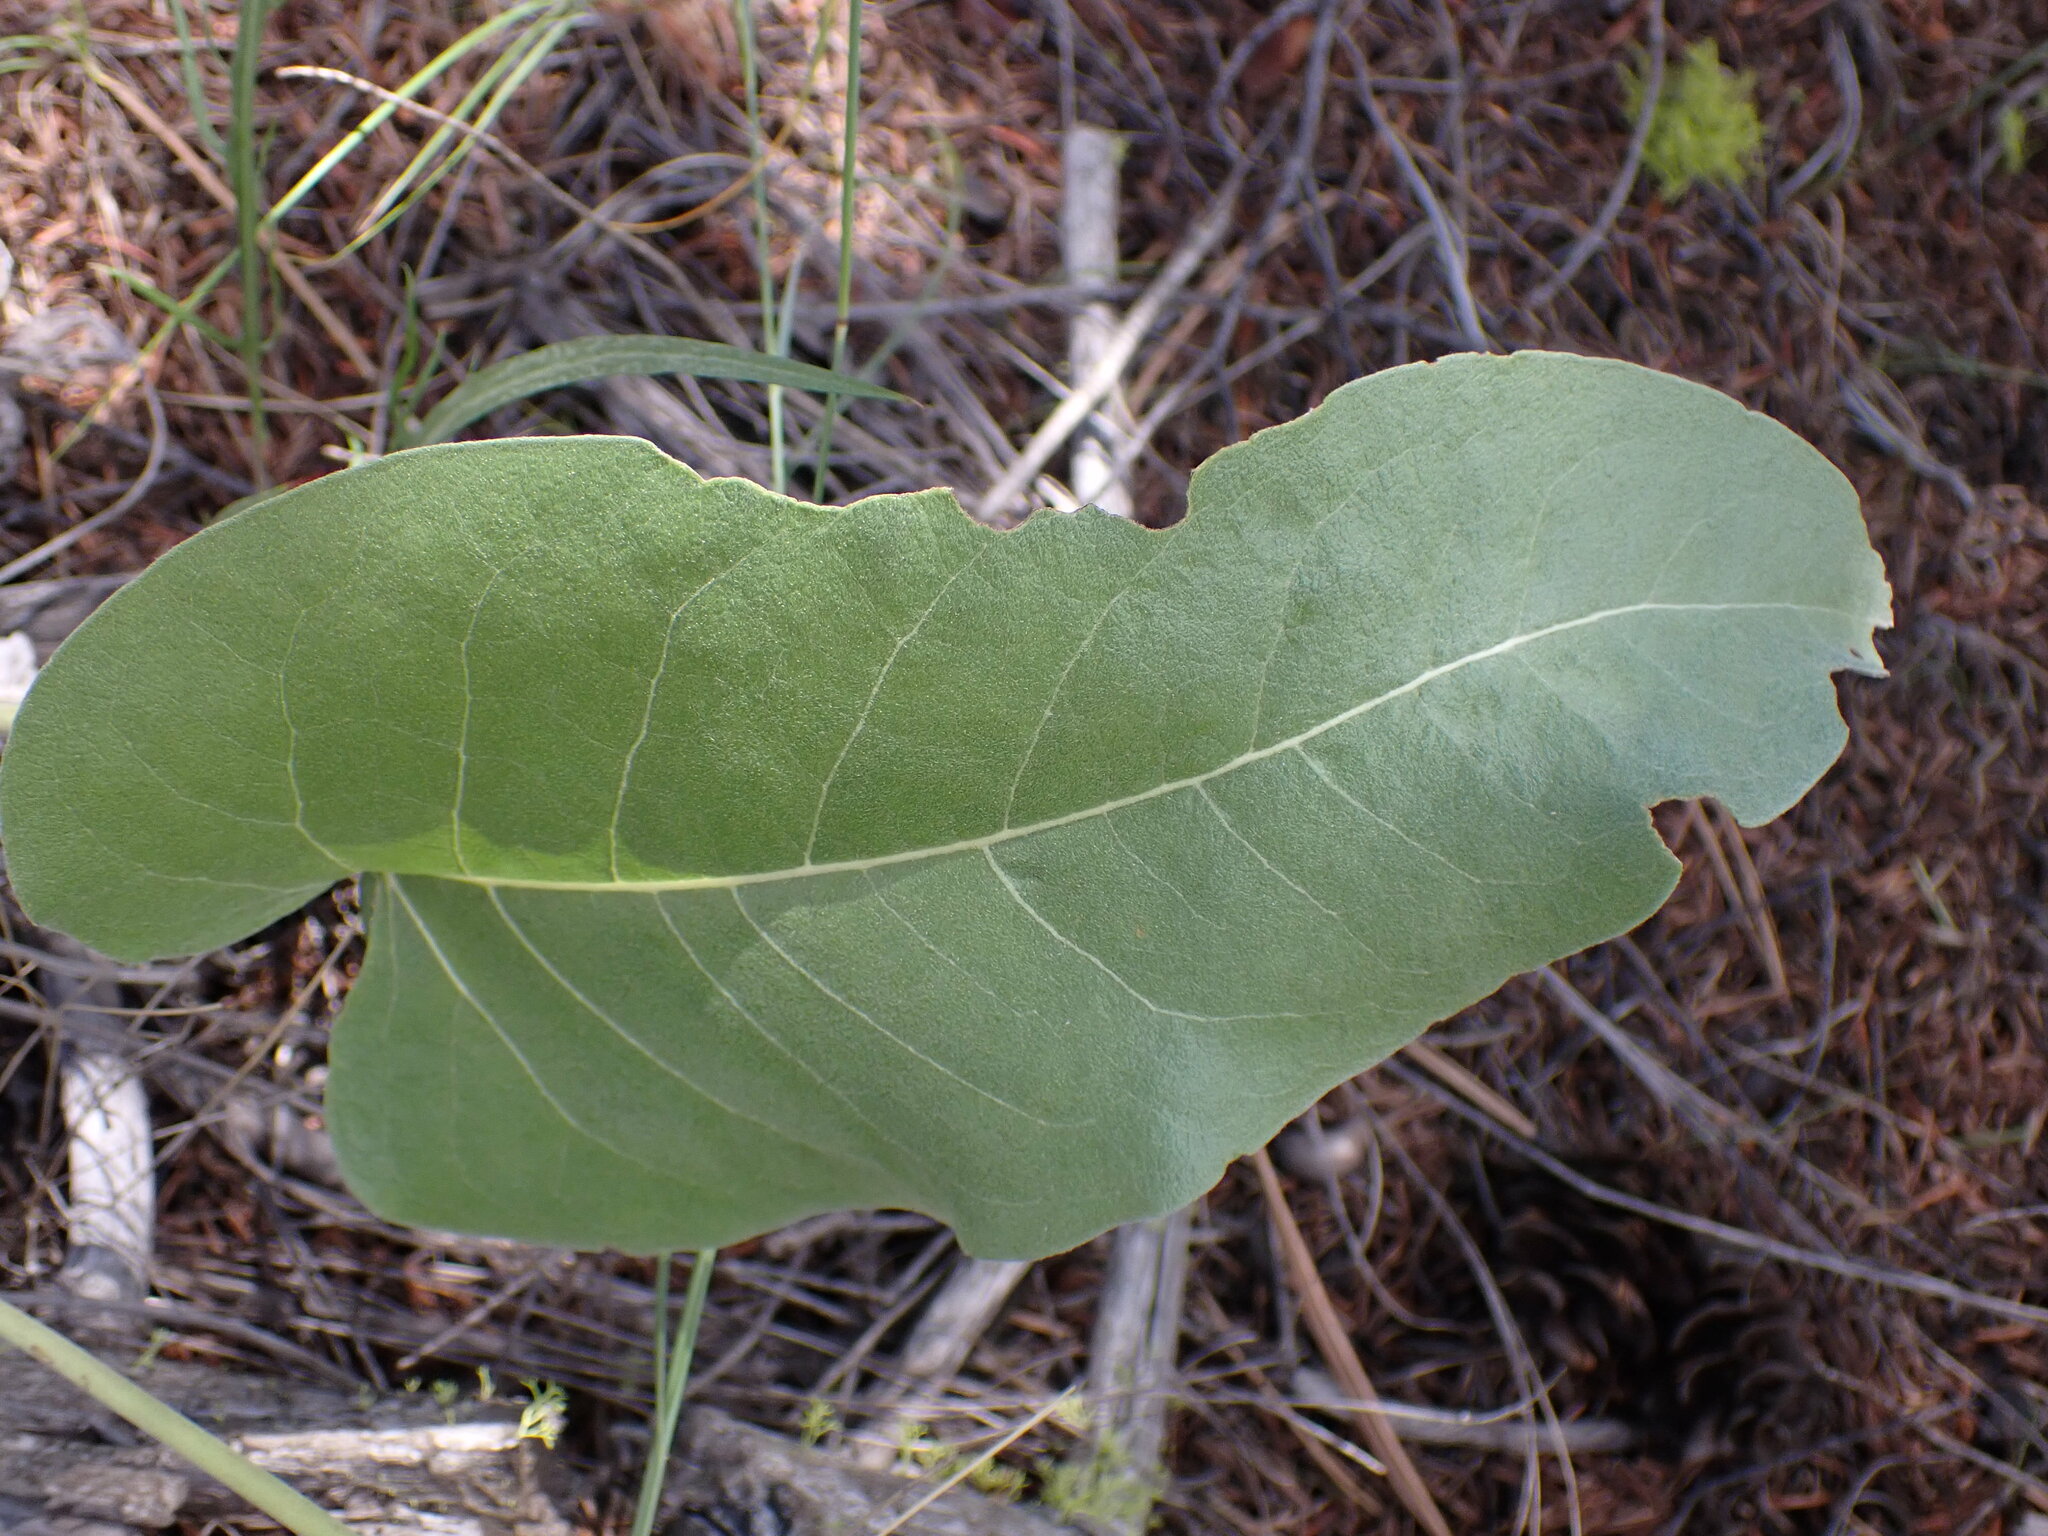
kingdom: Plantae
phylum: Tracheophyta
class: Magnoliopsida
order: Asterales
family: Asteraceae
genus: Wyethia
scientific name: Wyethia sagittata
